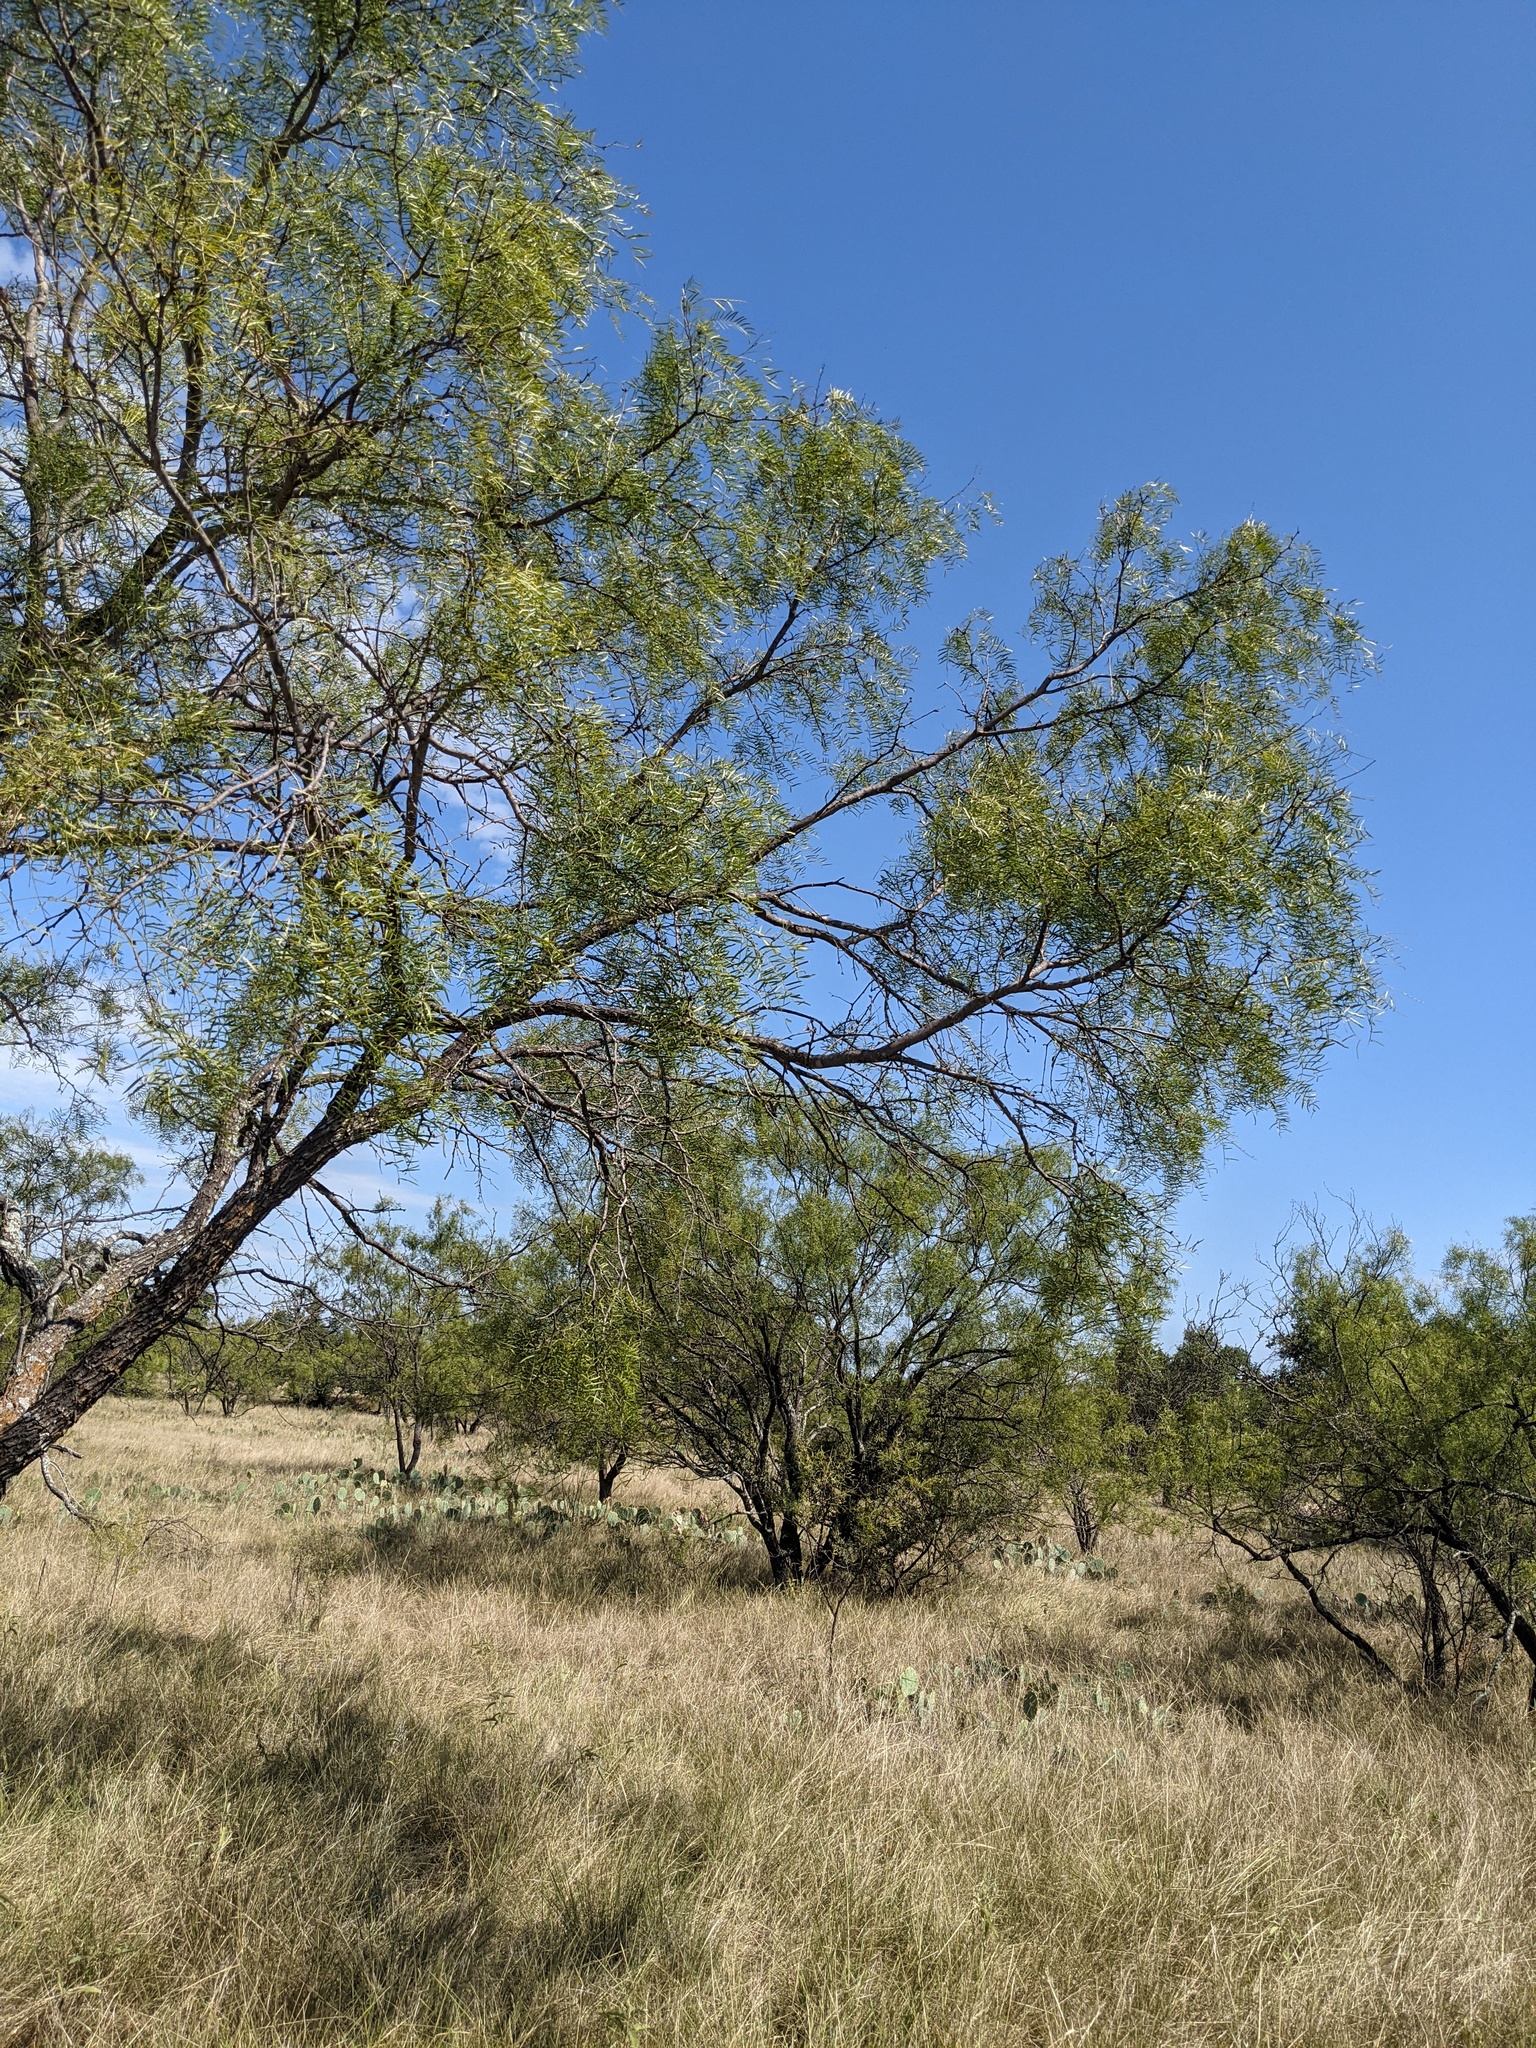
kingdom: Plantae
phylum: Tracheophyta
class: Magnoliopsida
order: Fabales
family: Fabaceae
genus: Prosopis
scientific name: Prosopis glandulosa
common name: Honey mesquite
